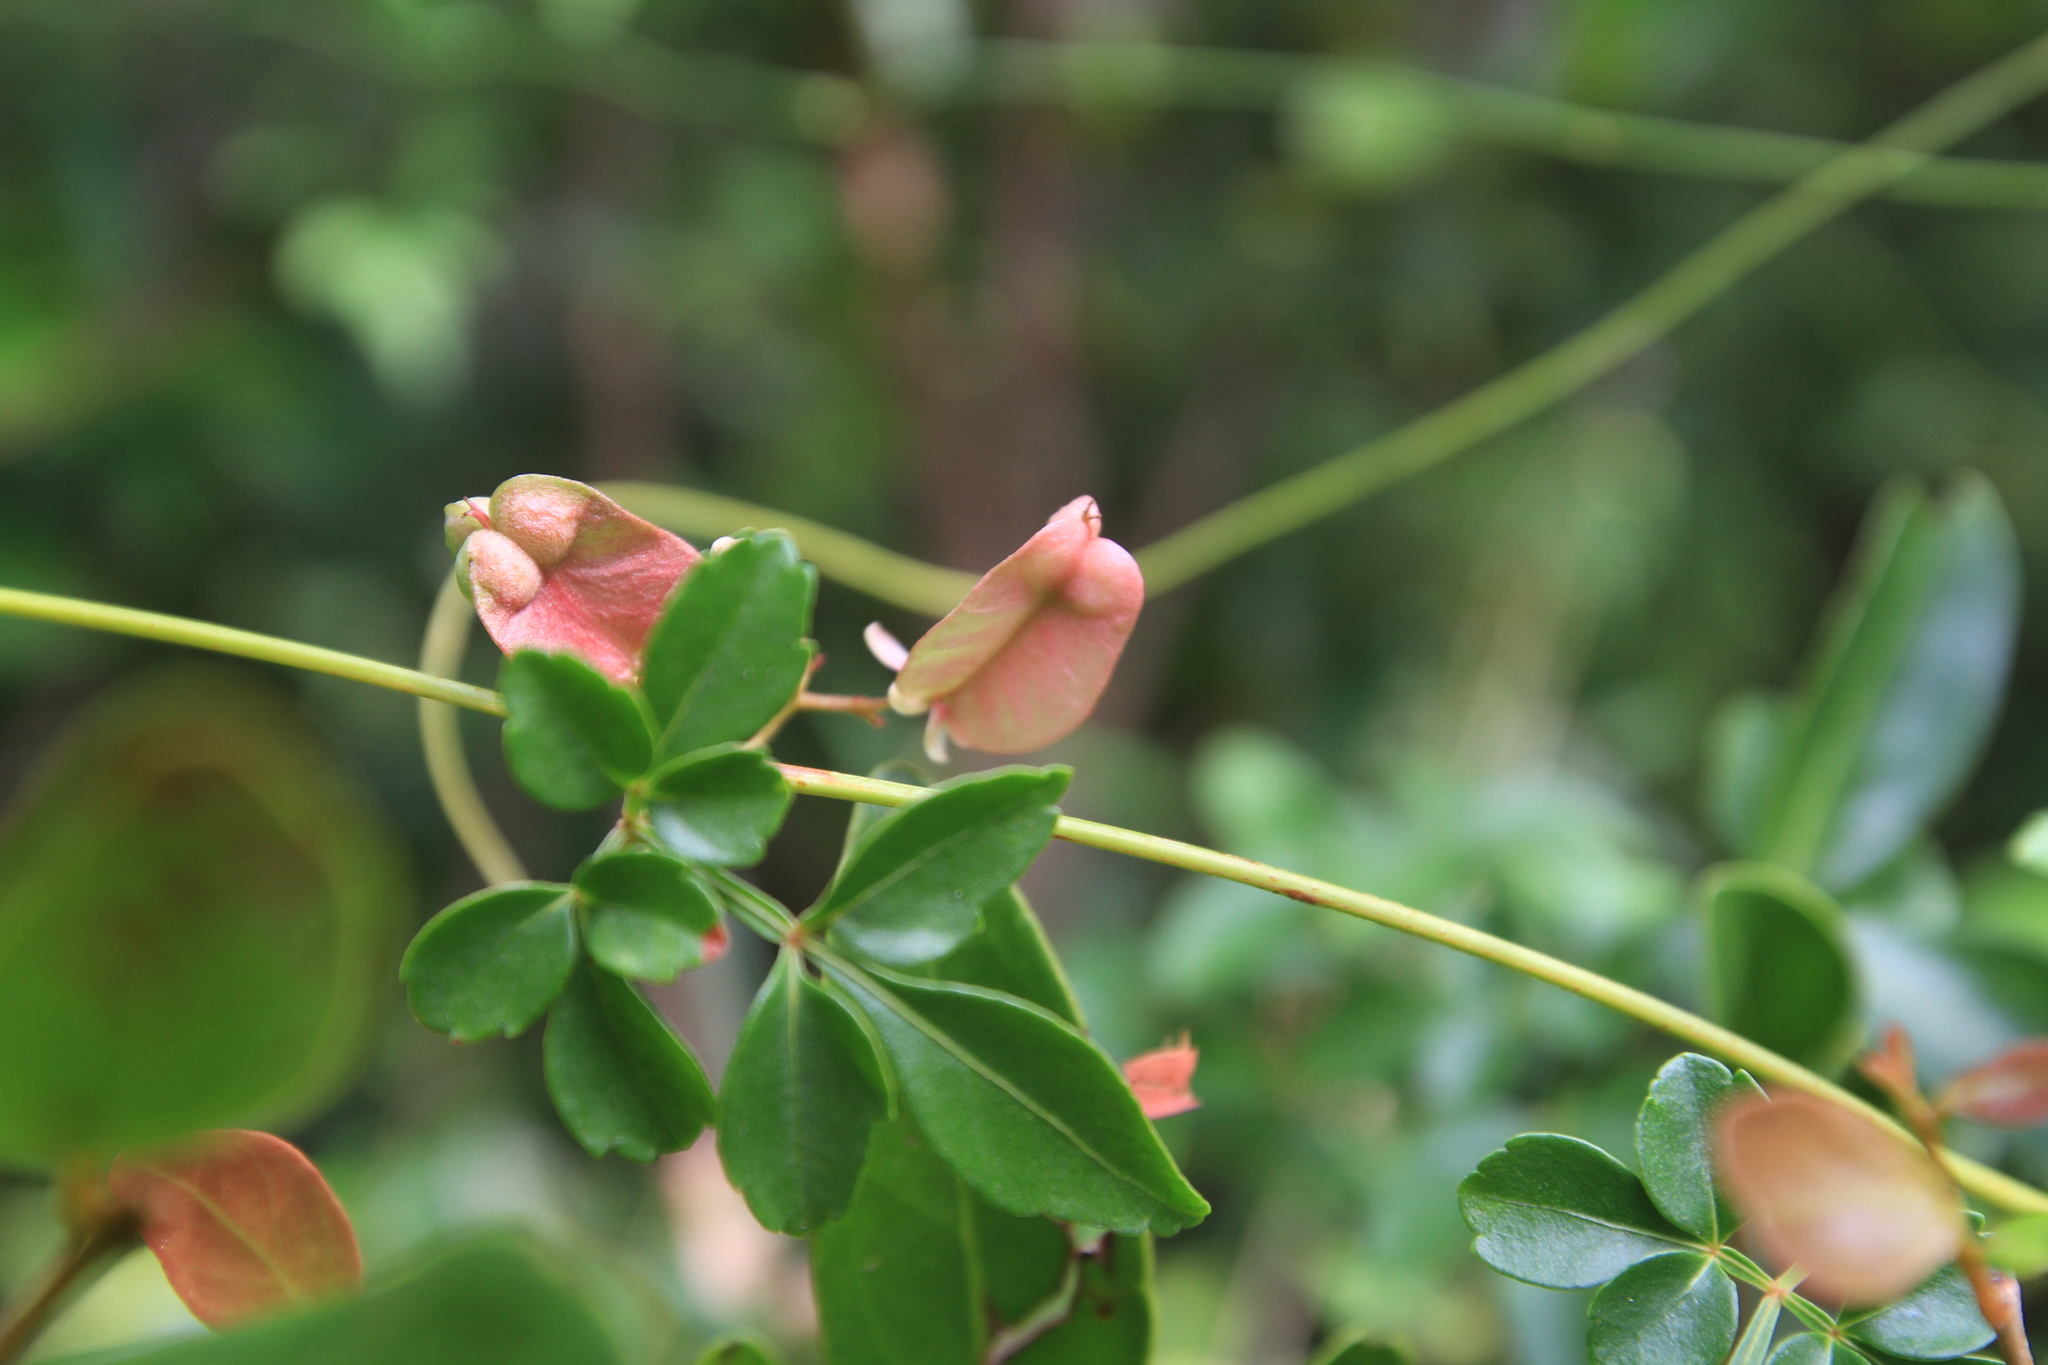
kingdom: Plantae
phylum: Tracheophyta
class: Magnoliopsida
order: Sapindales
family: Sapindaceae
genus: Serjania
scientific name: Serjania polyphylla
